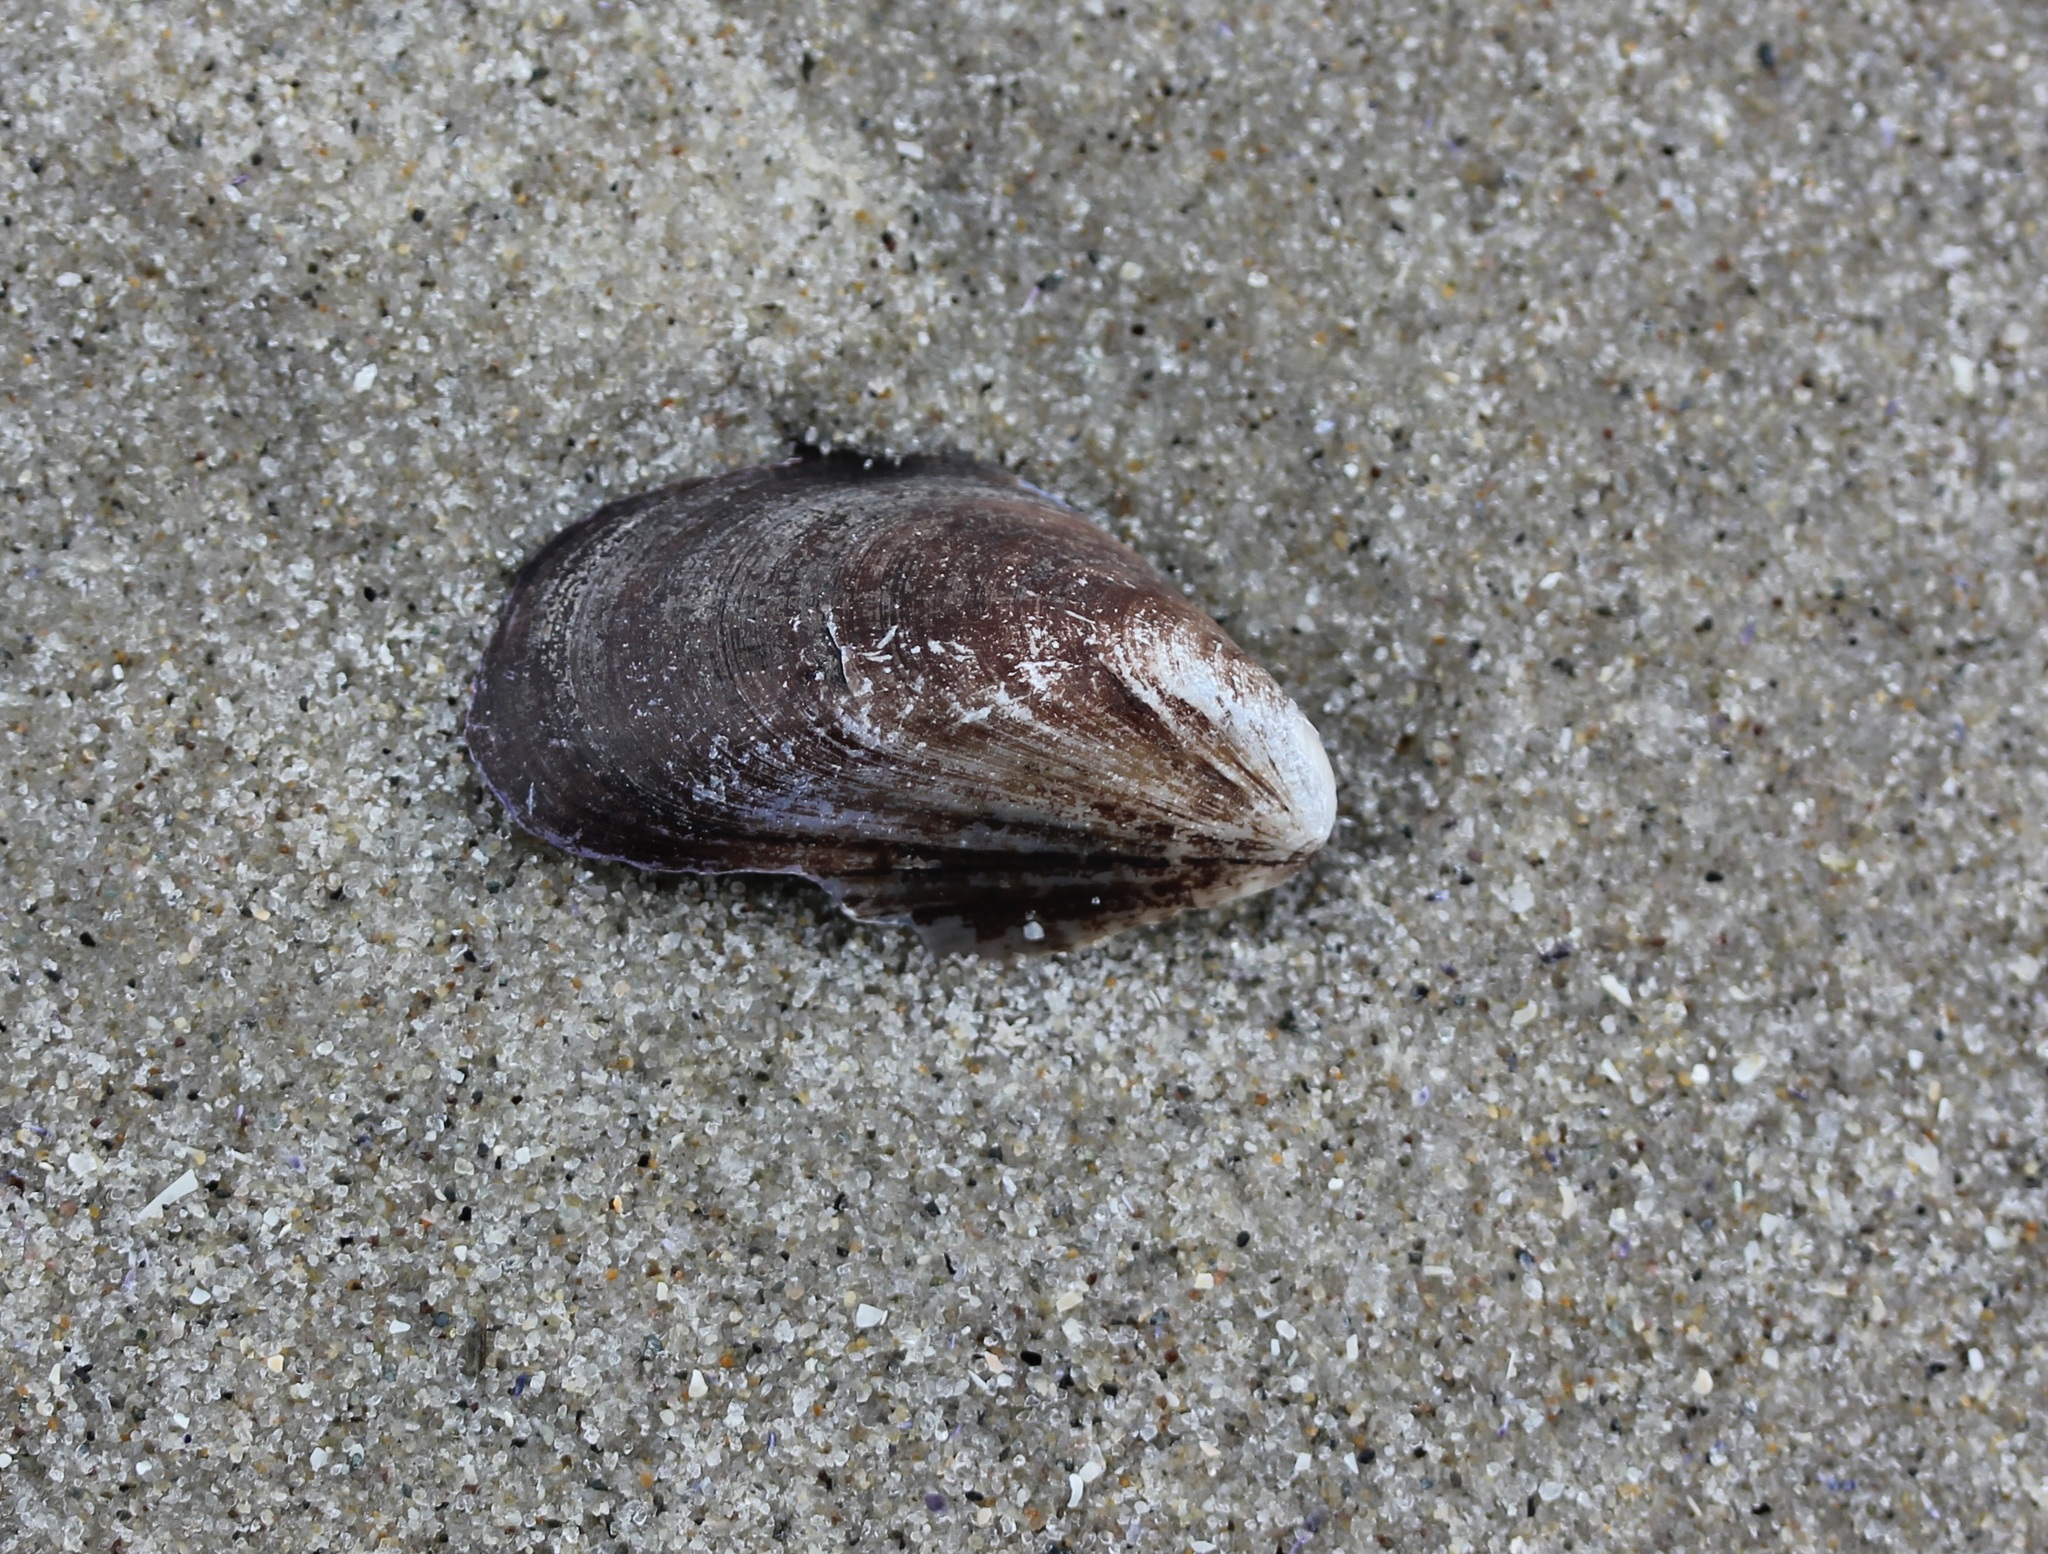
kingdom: Animalia
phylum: Mollusca
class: Bivalvia
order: Mytilida
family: Mytilidae
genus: Mytilus
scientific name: Mytilus edulis
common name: Blue mussel
